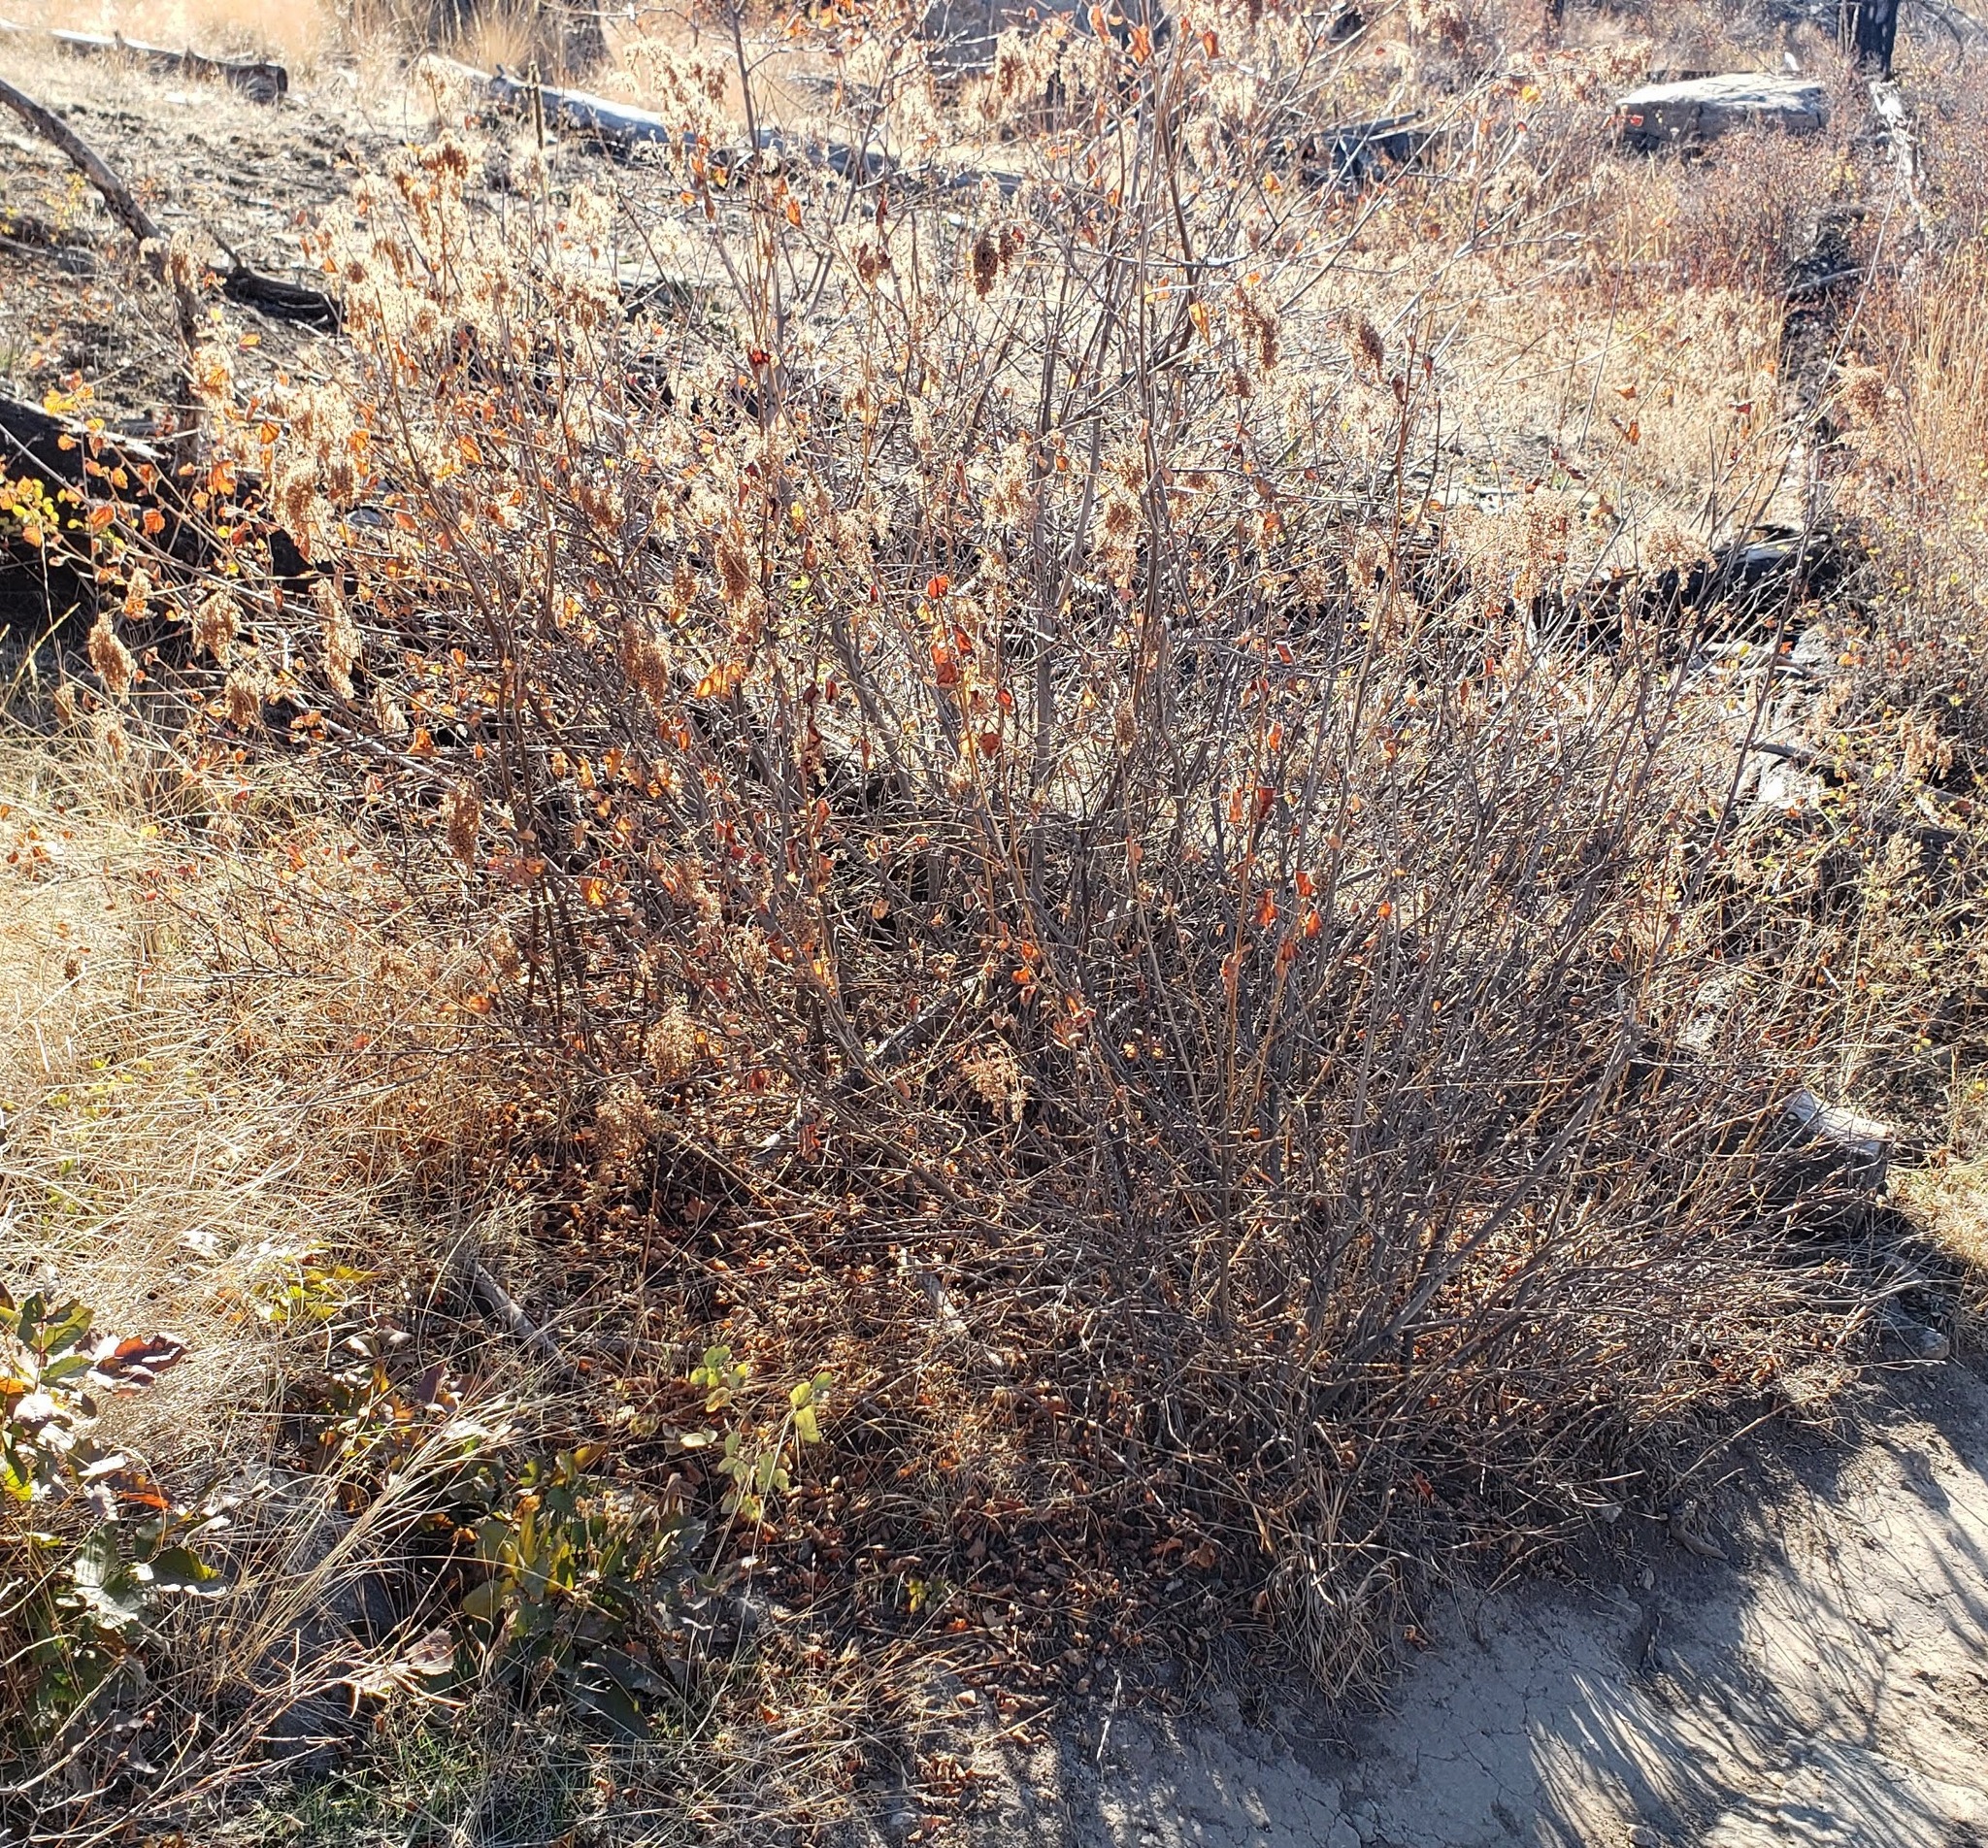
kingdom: Plantae
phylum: Tracheophyta
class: Magnoliopsida
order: Rosales
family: Rosaceae
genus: Holodiscus
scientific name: Holodiscus discolor
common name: Oceanspray
